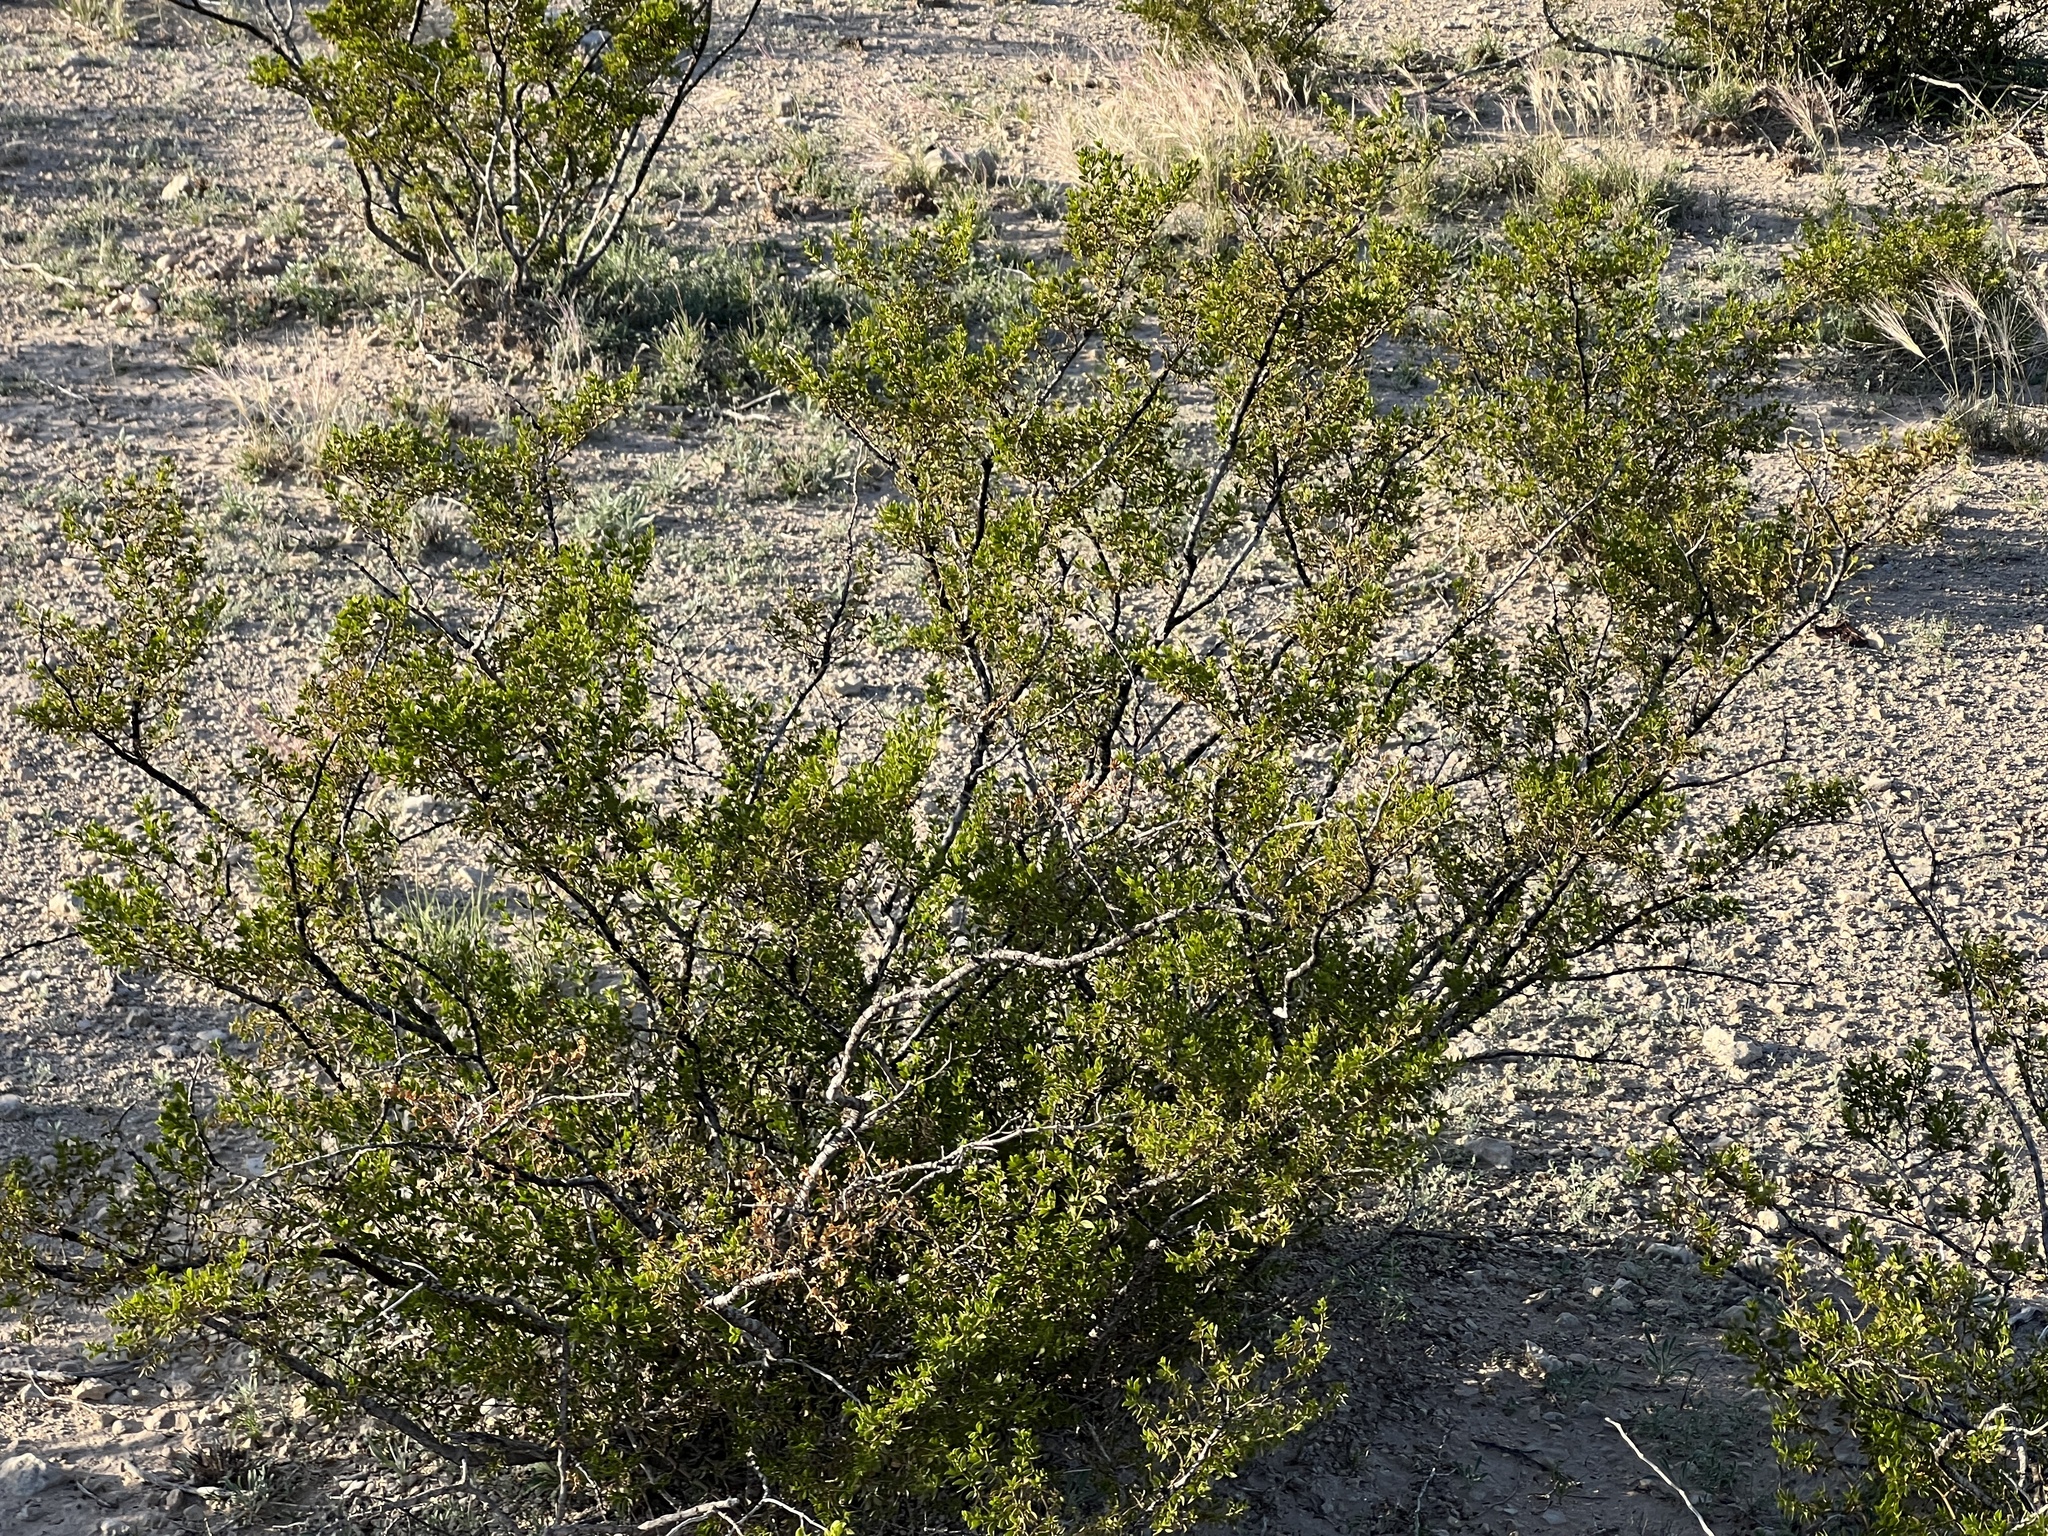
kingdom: Plantae
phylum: Tracheophyta
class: Magnoliopsida
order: Zygophyllales
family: Zygophyllaceae
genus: Larrea
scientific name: Larrea tridentata
